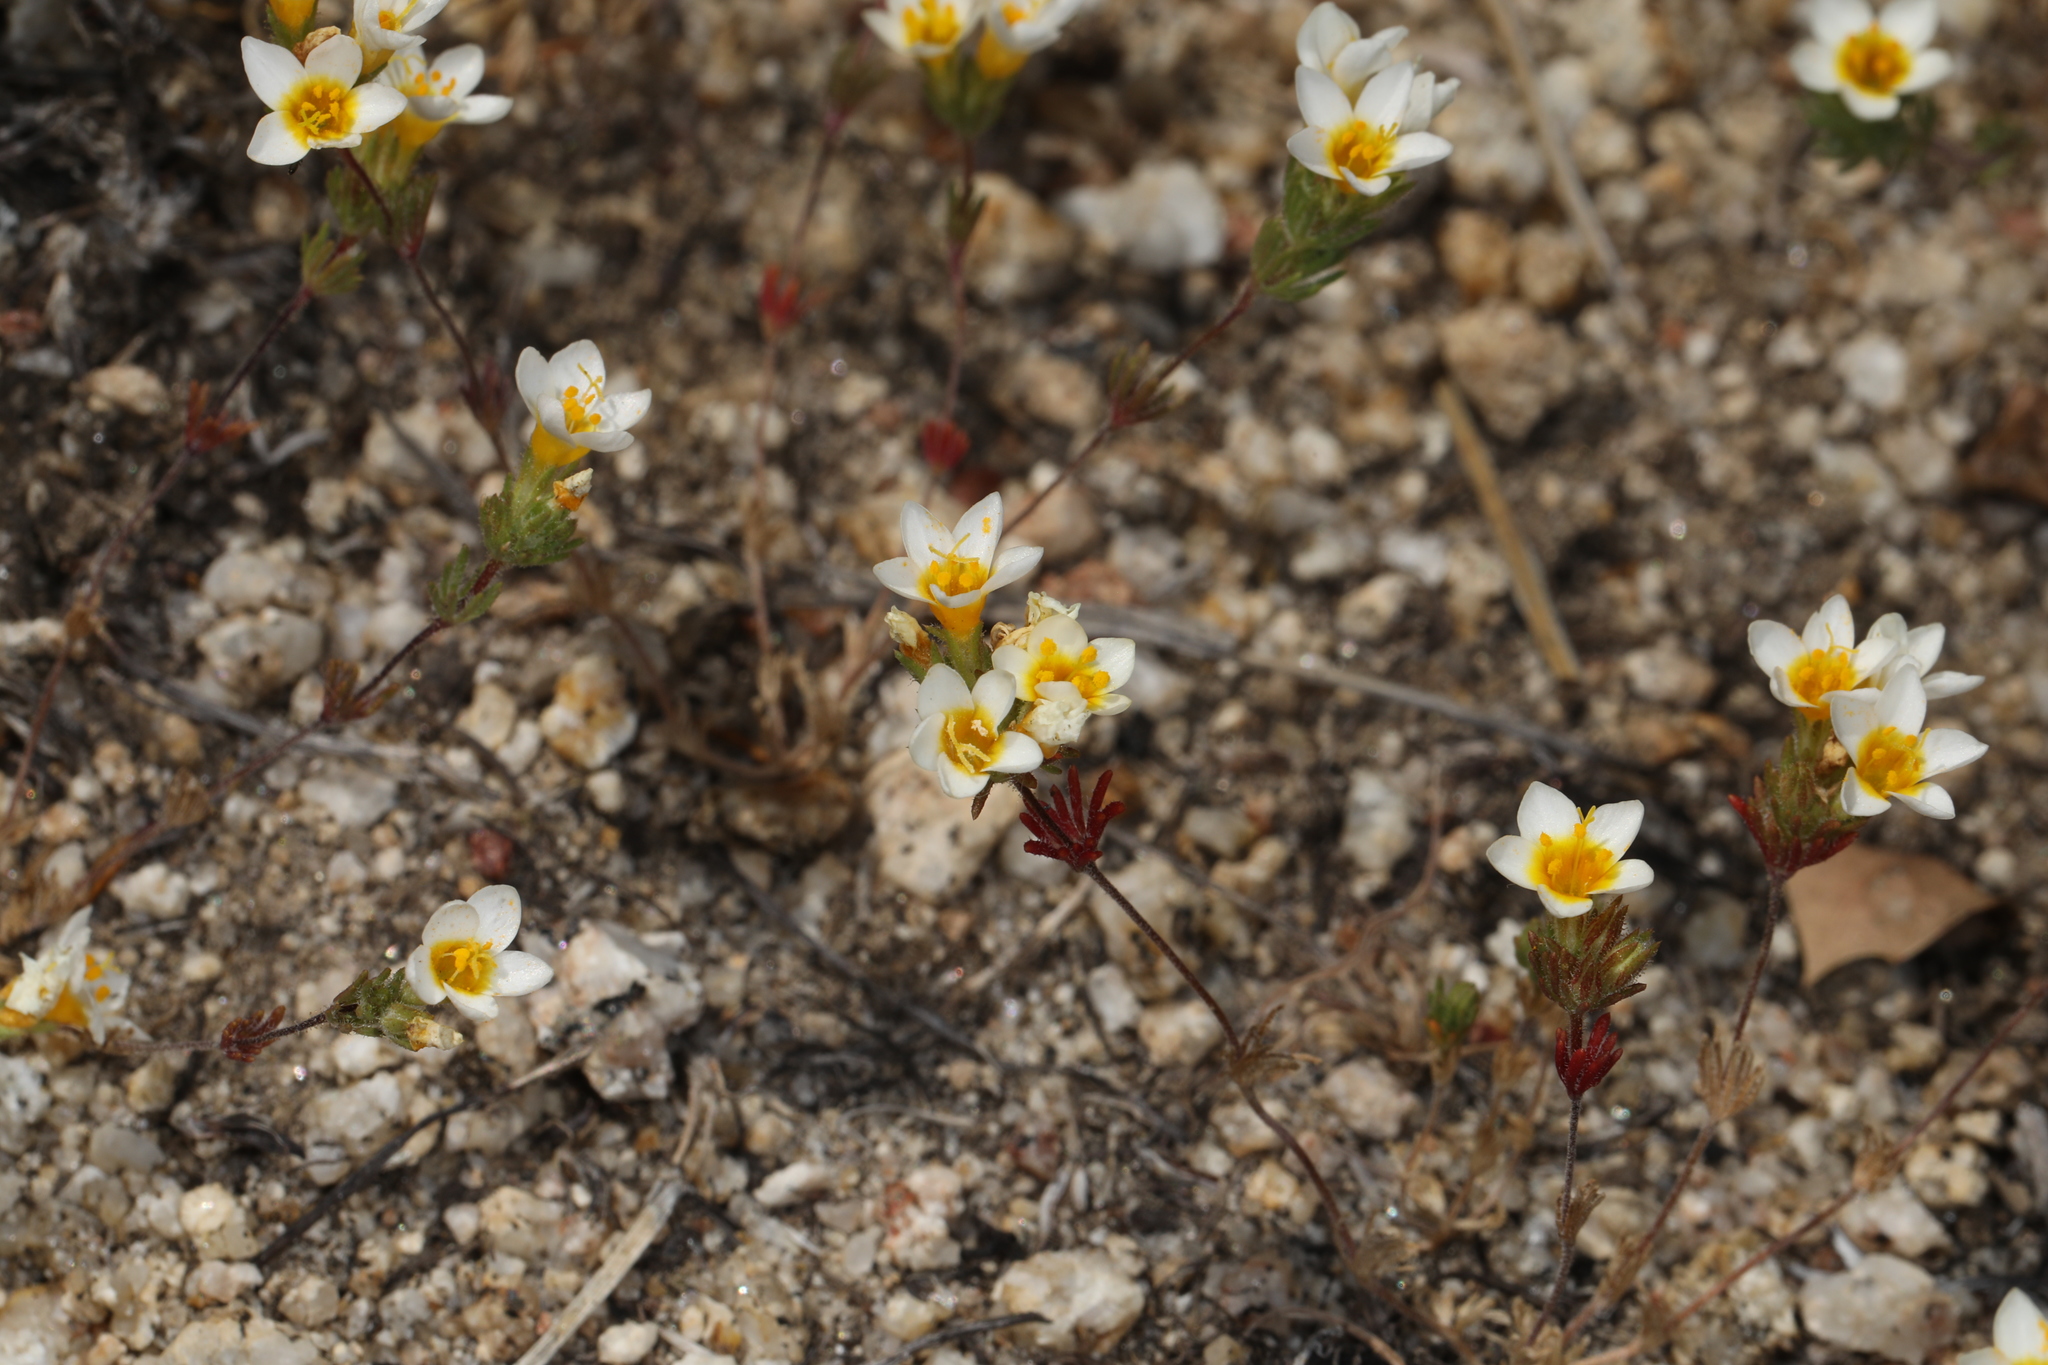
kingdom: Plantae
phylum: Tracheophyta
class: Magnoliopsida
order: Ericales
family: Polemoniaceae
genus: Leptosiphon
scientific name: Leptosiphon lemmonii
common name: Lemmon's linanthus
